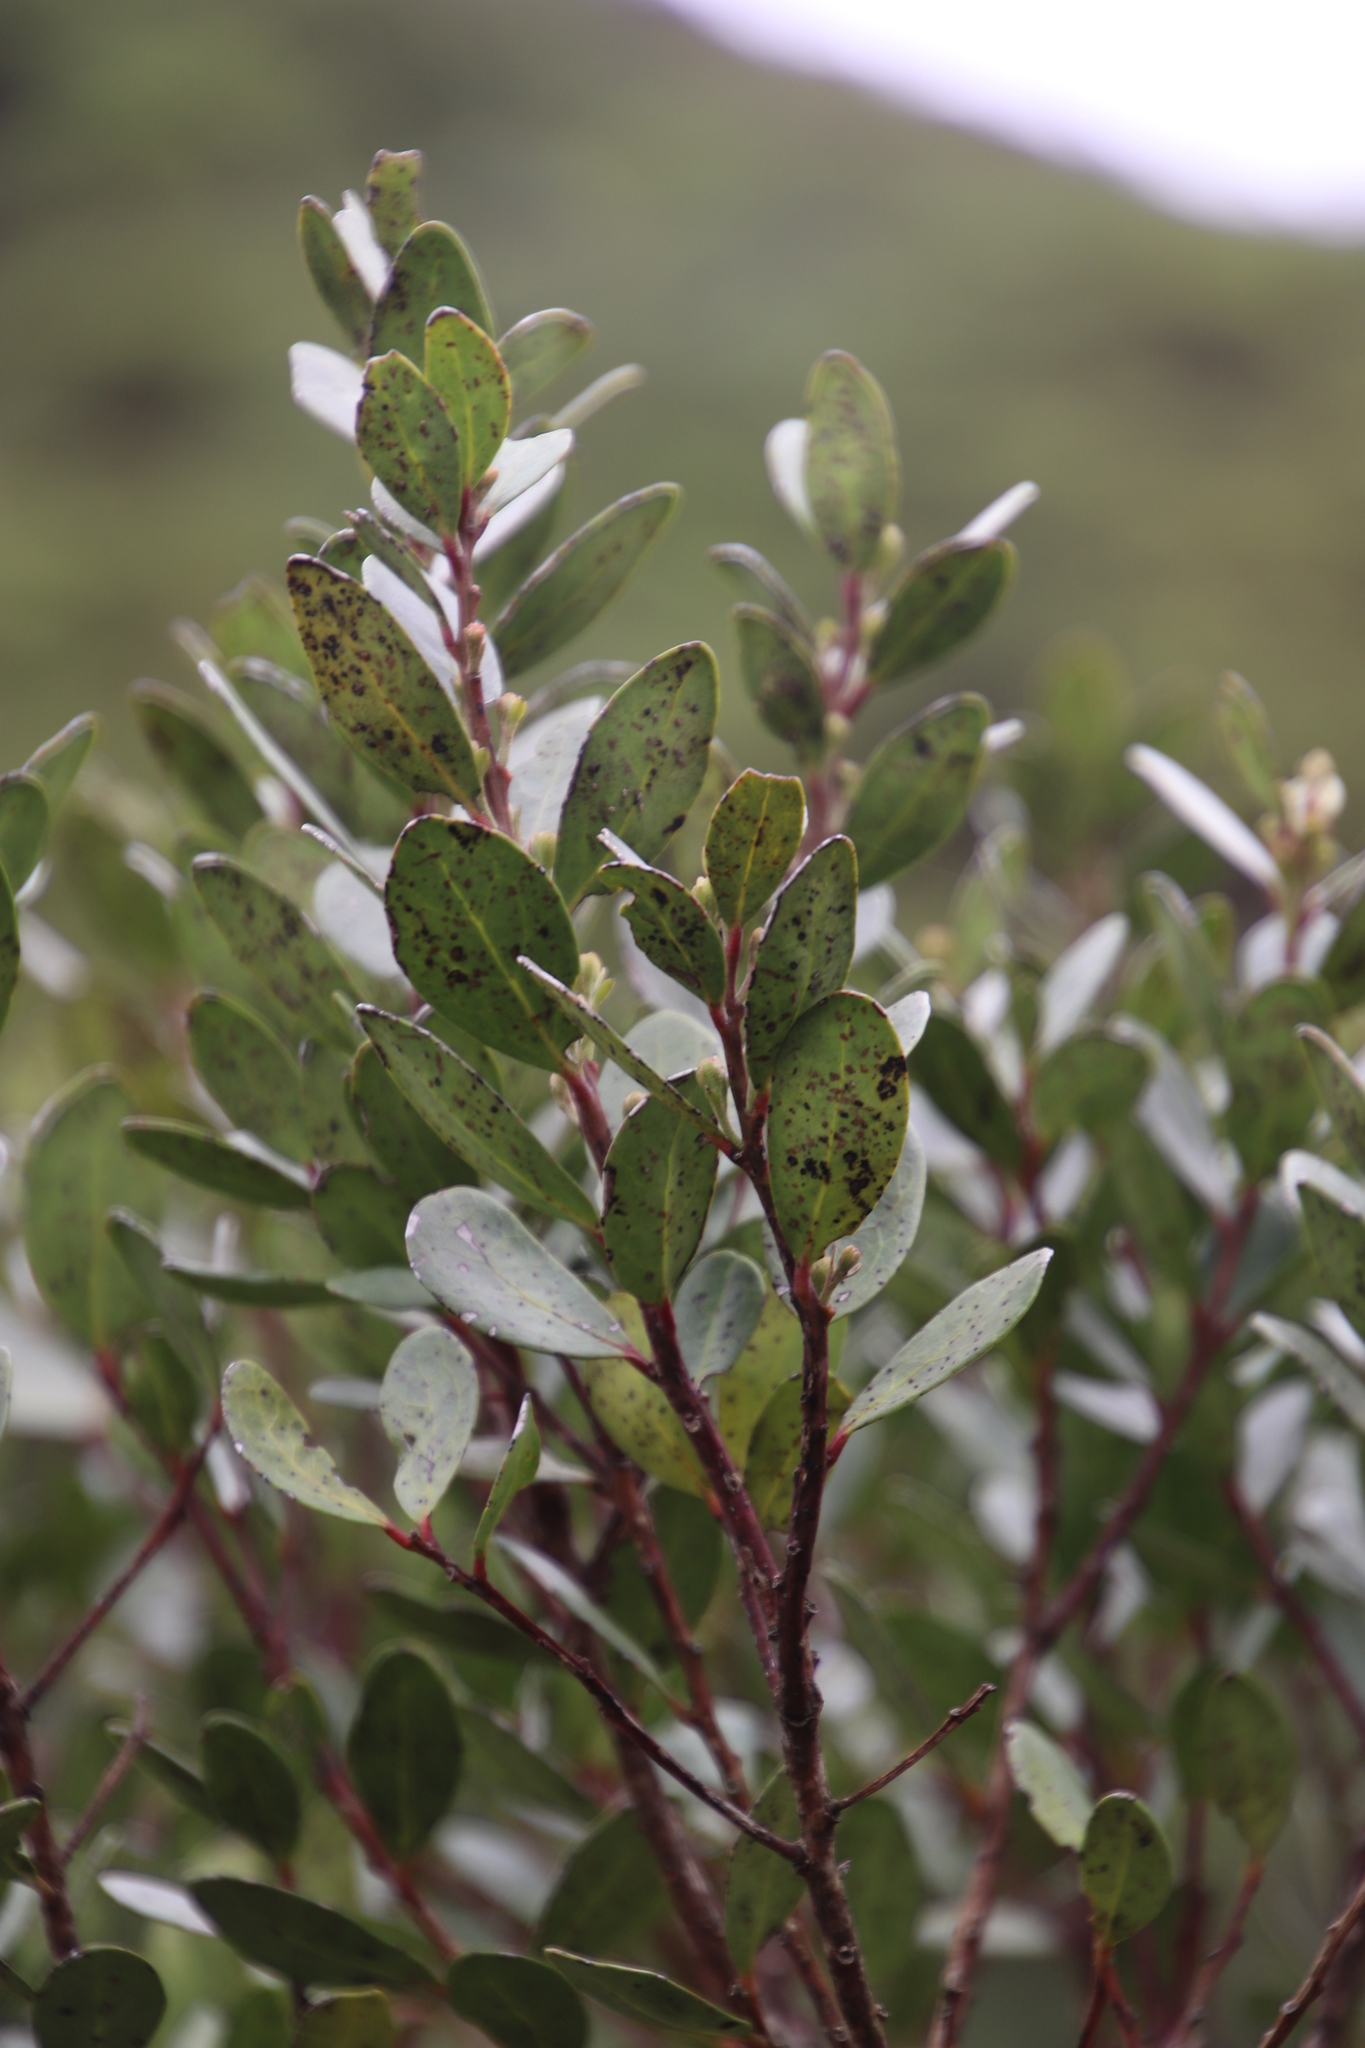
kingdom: Plantae
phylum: Tracheophyta
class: Magnoliopsida
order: Celastrales
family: Celastraceae
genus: Pterocelastrus
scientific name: Pterocelastrus tricuspidatus
